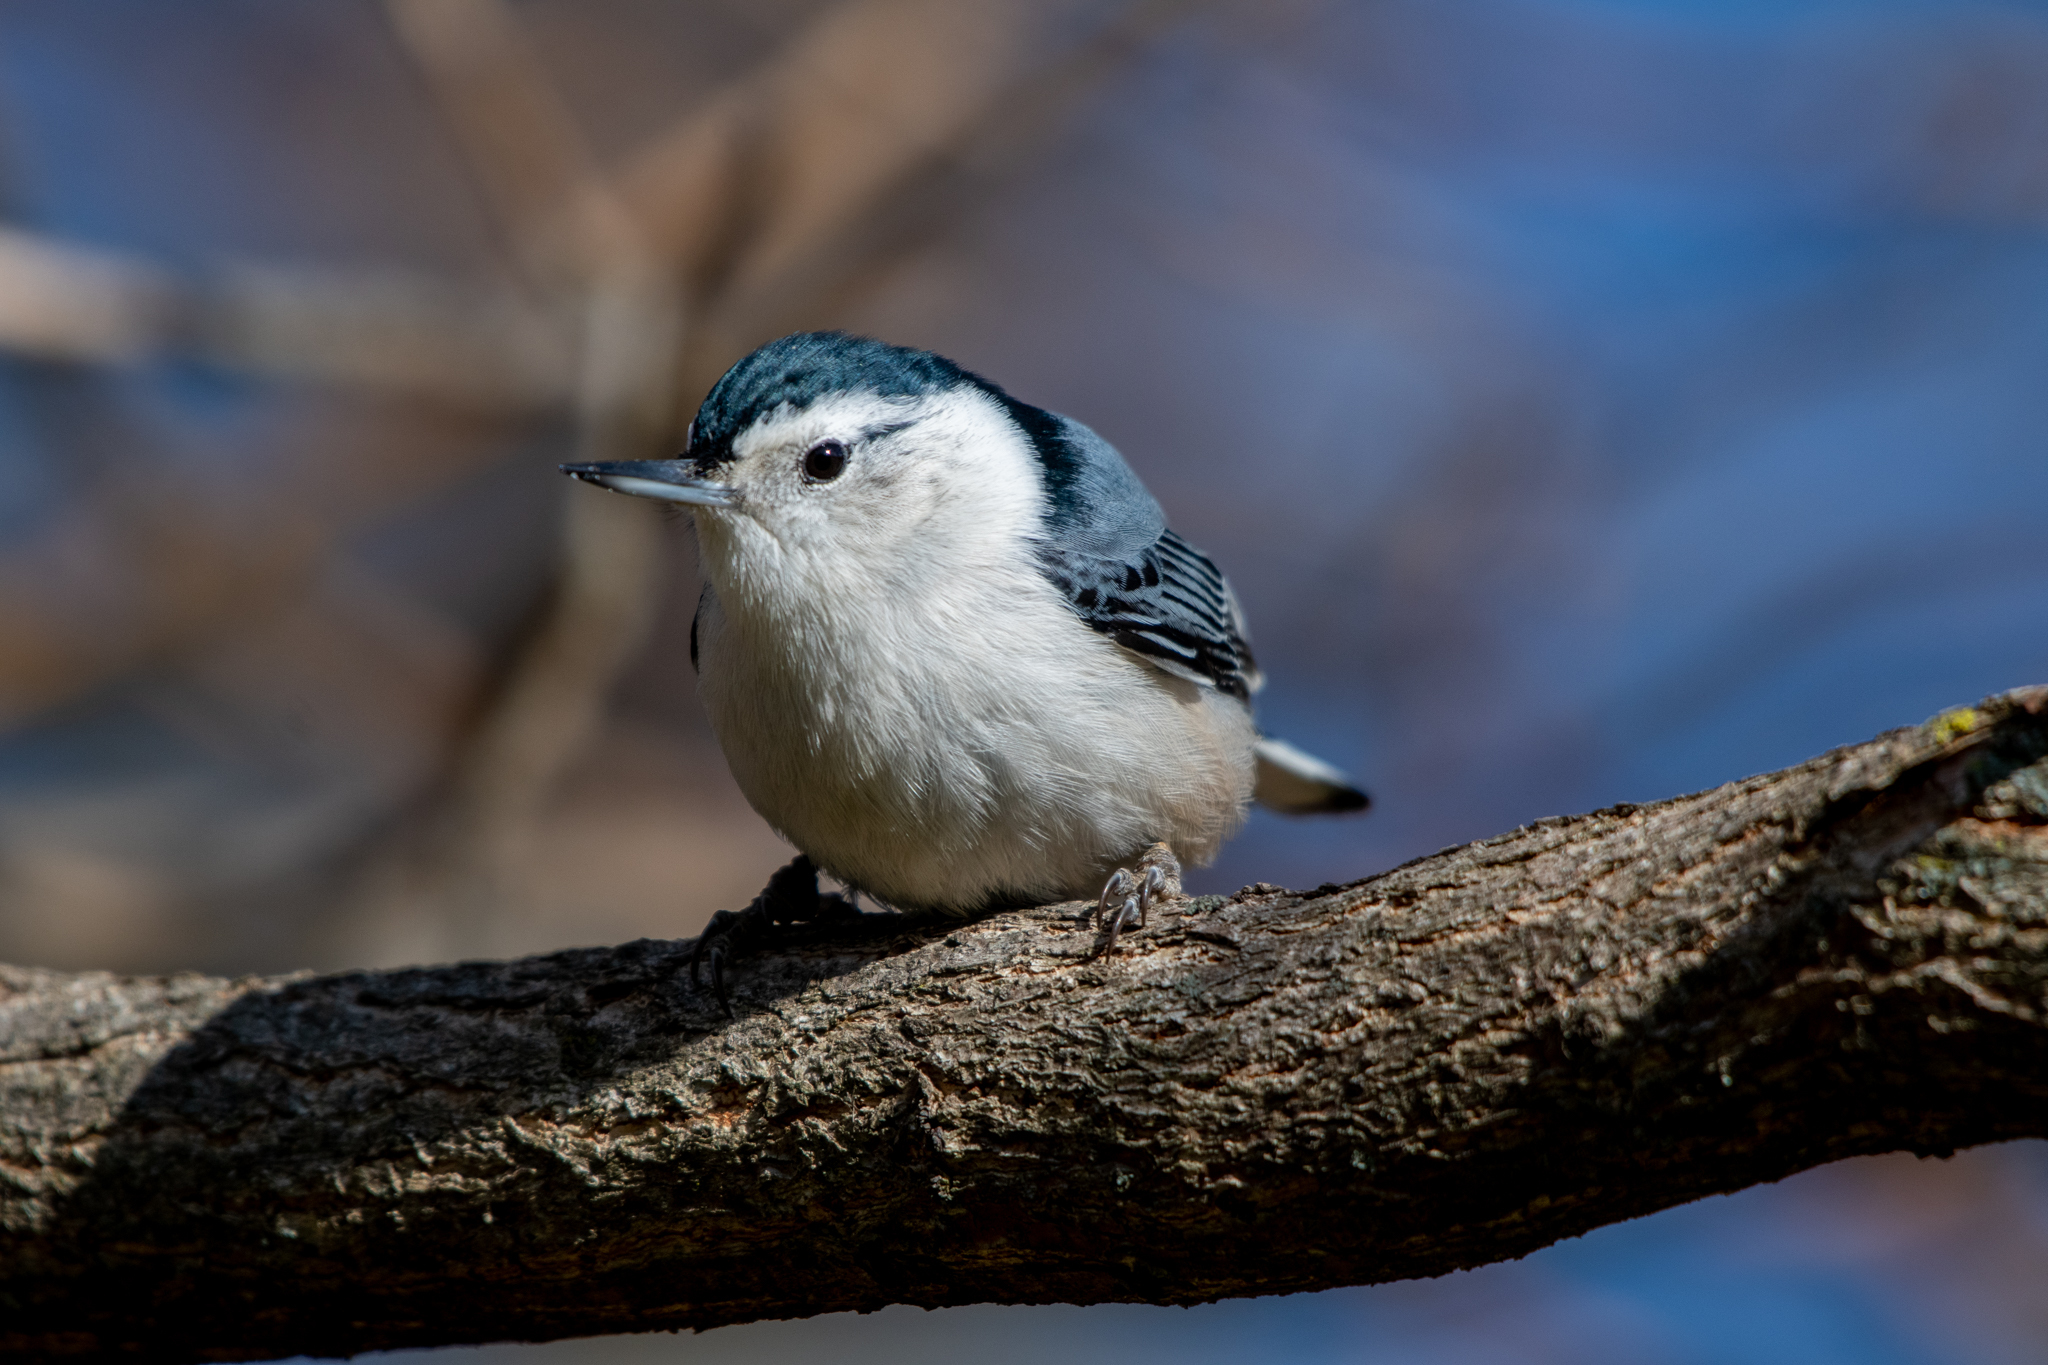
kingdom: Animalia
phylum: Chordata
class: Aves
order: Passeriformes
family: Sittidae
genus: Sitta
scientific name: Sitta carolinensis
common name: White-breasted nuthatch
